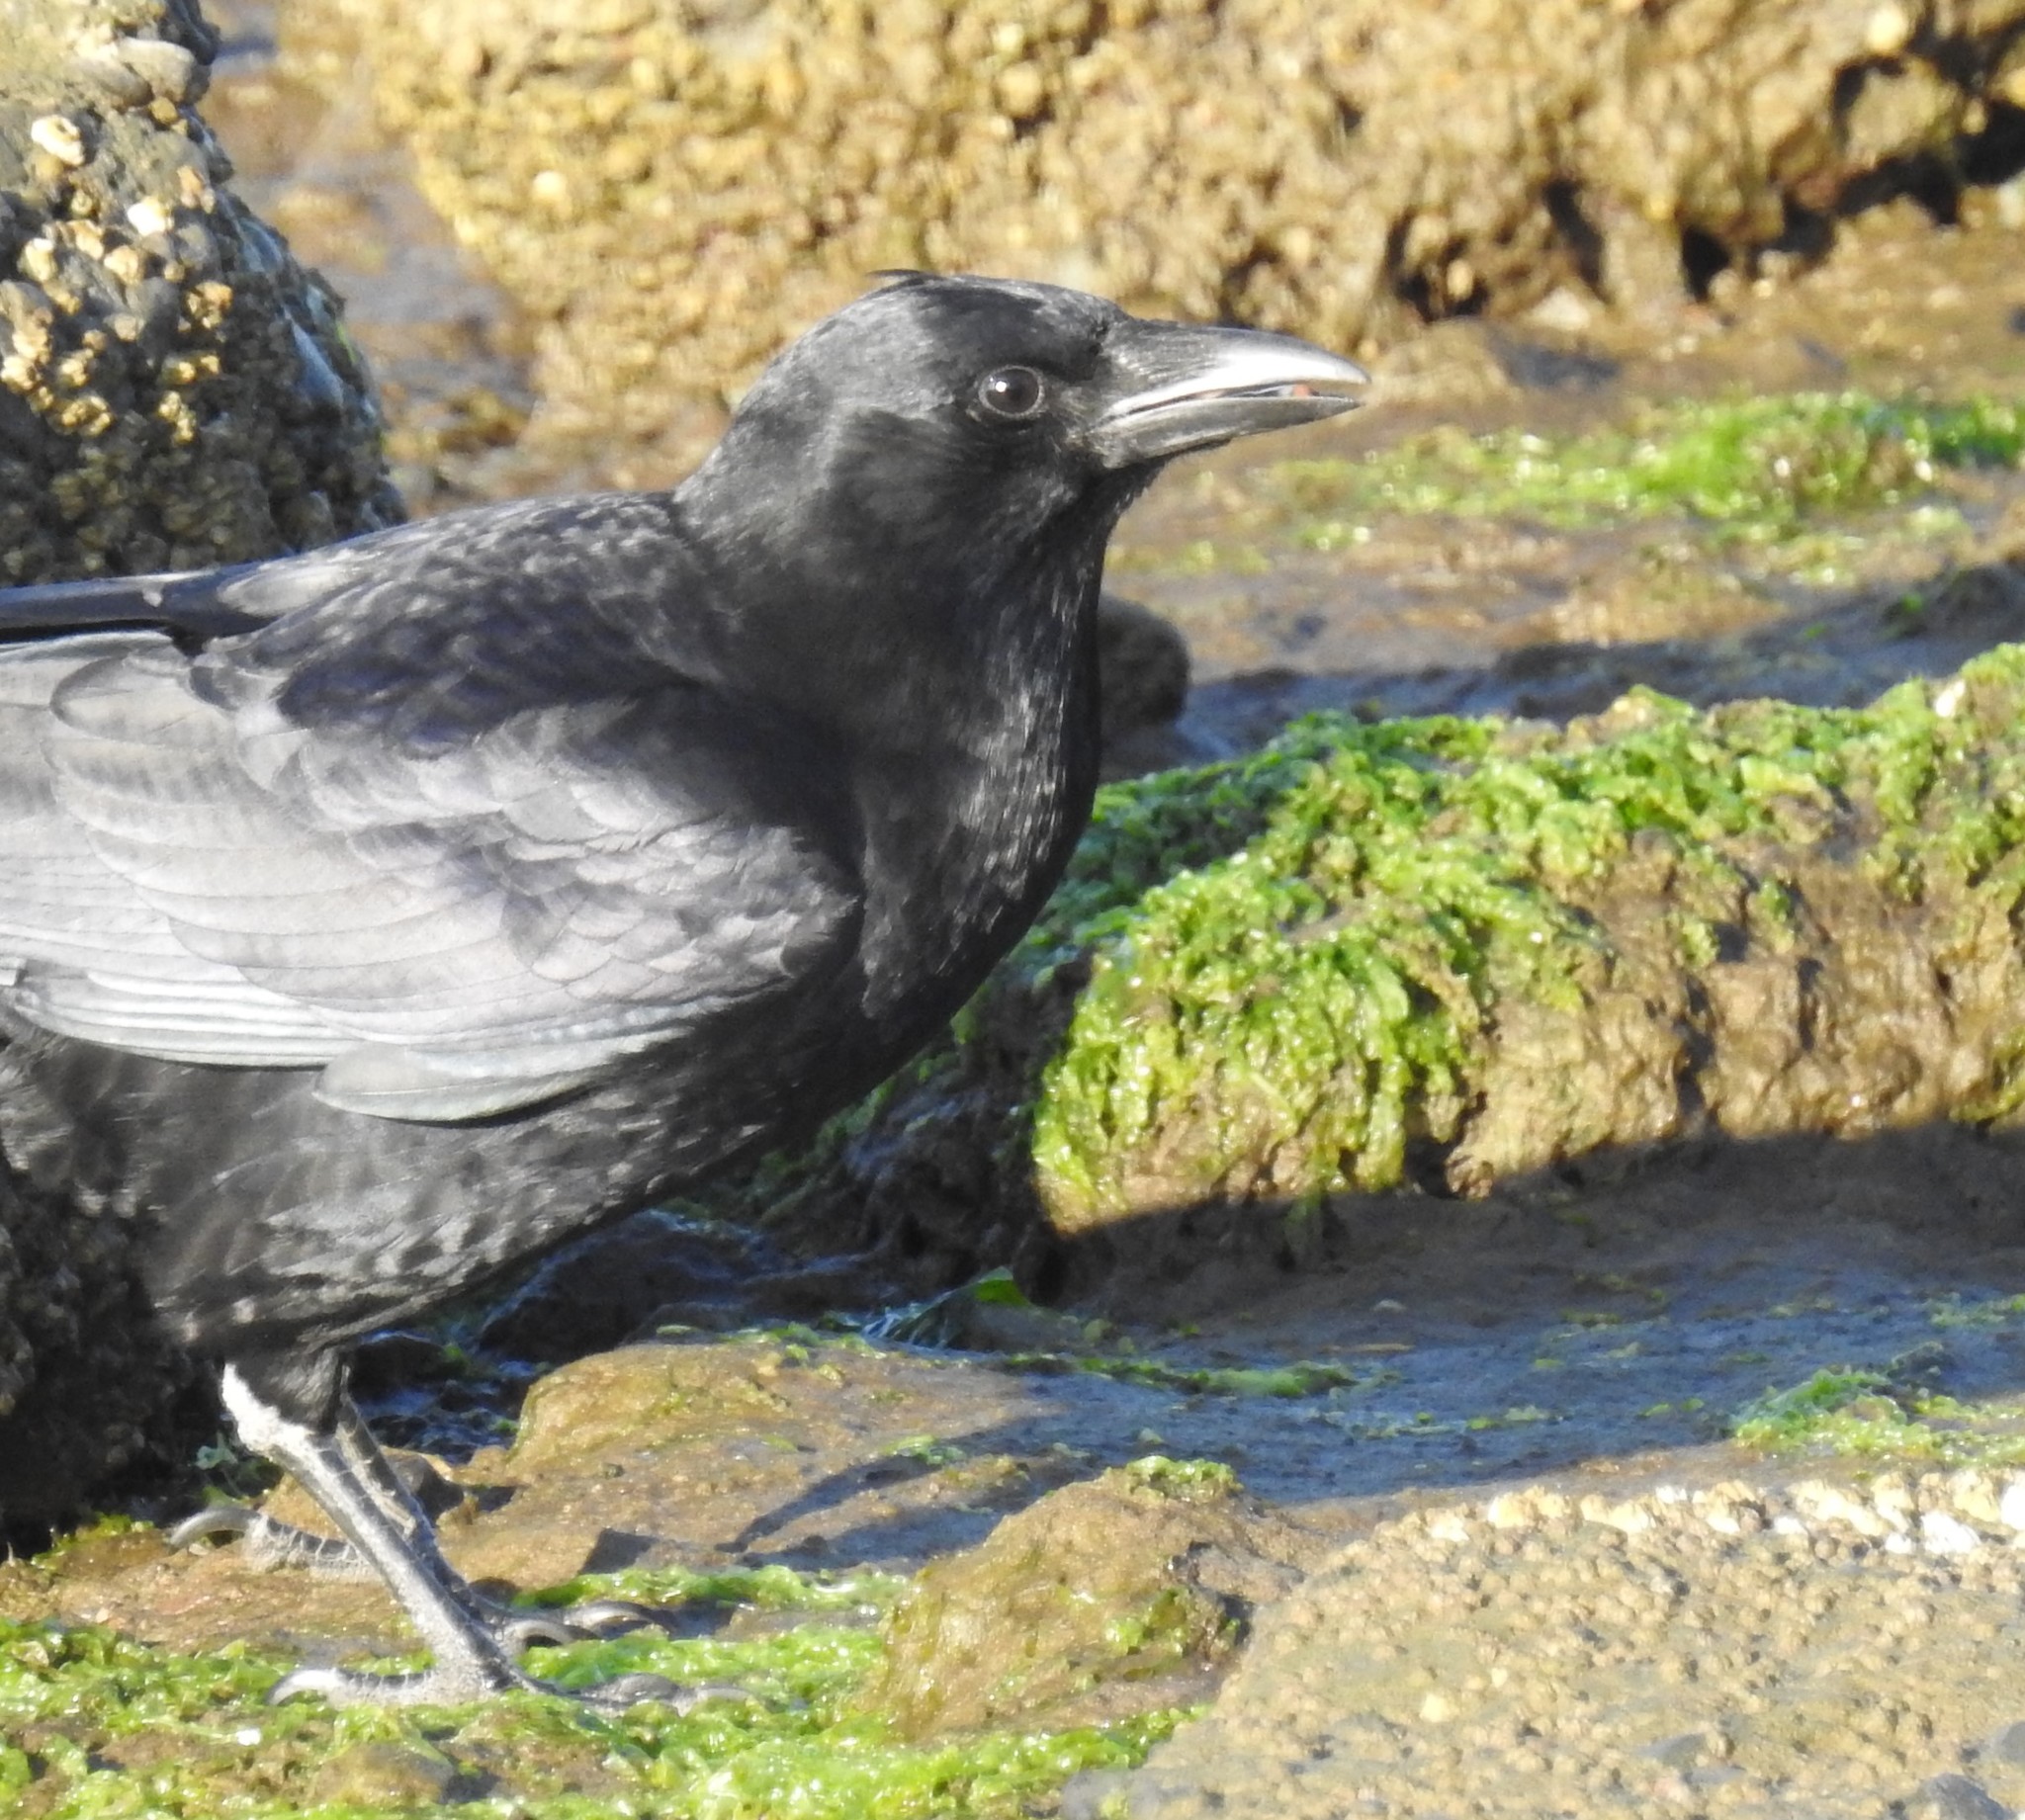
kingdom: Animalia
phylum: Chordata
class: Aves
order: Passeriformes
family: Corvidae
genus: Corvus
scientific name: Corvus brachyrhynchos
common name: American crow
